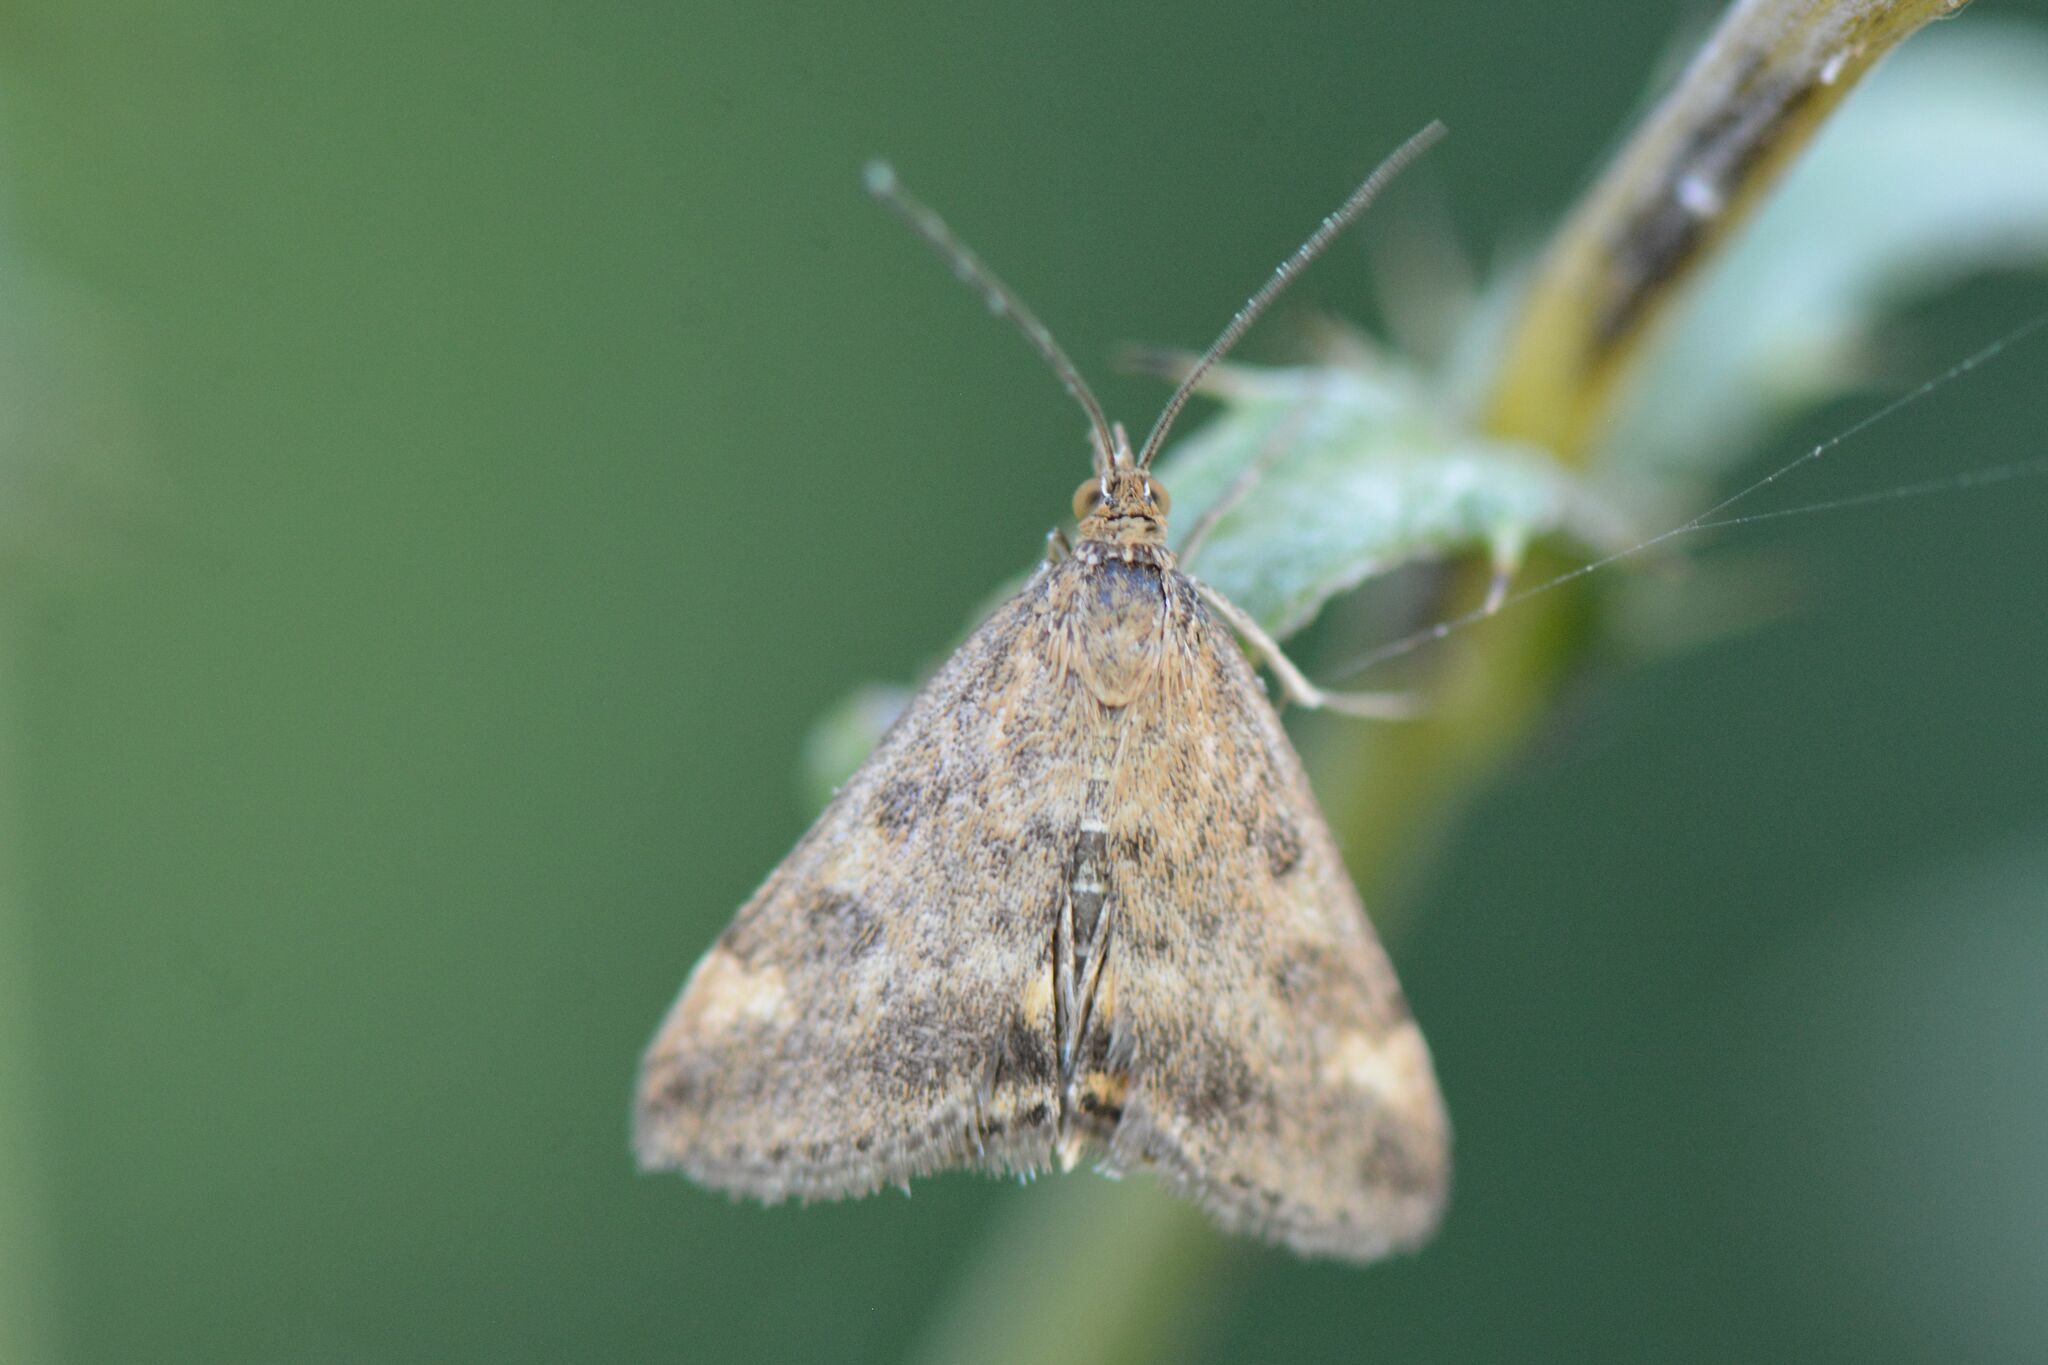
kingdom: Animalia
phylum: Arthropoda
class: Insecta
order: Lepidoptera
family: Crambidae
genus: Pyrausta
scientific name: Pyrausta despicata
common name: Straw-barred pearl
